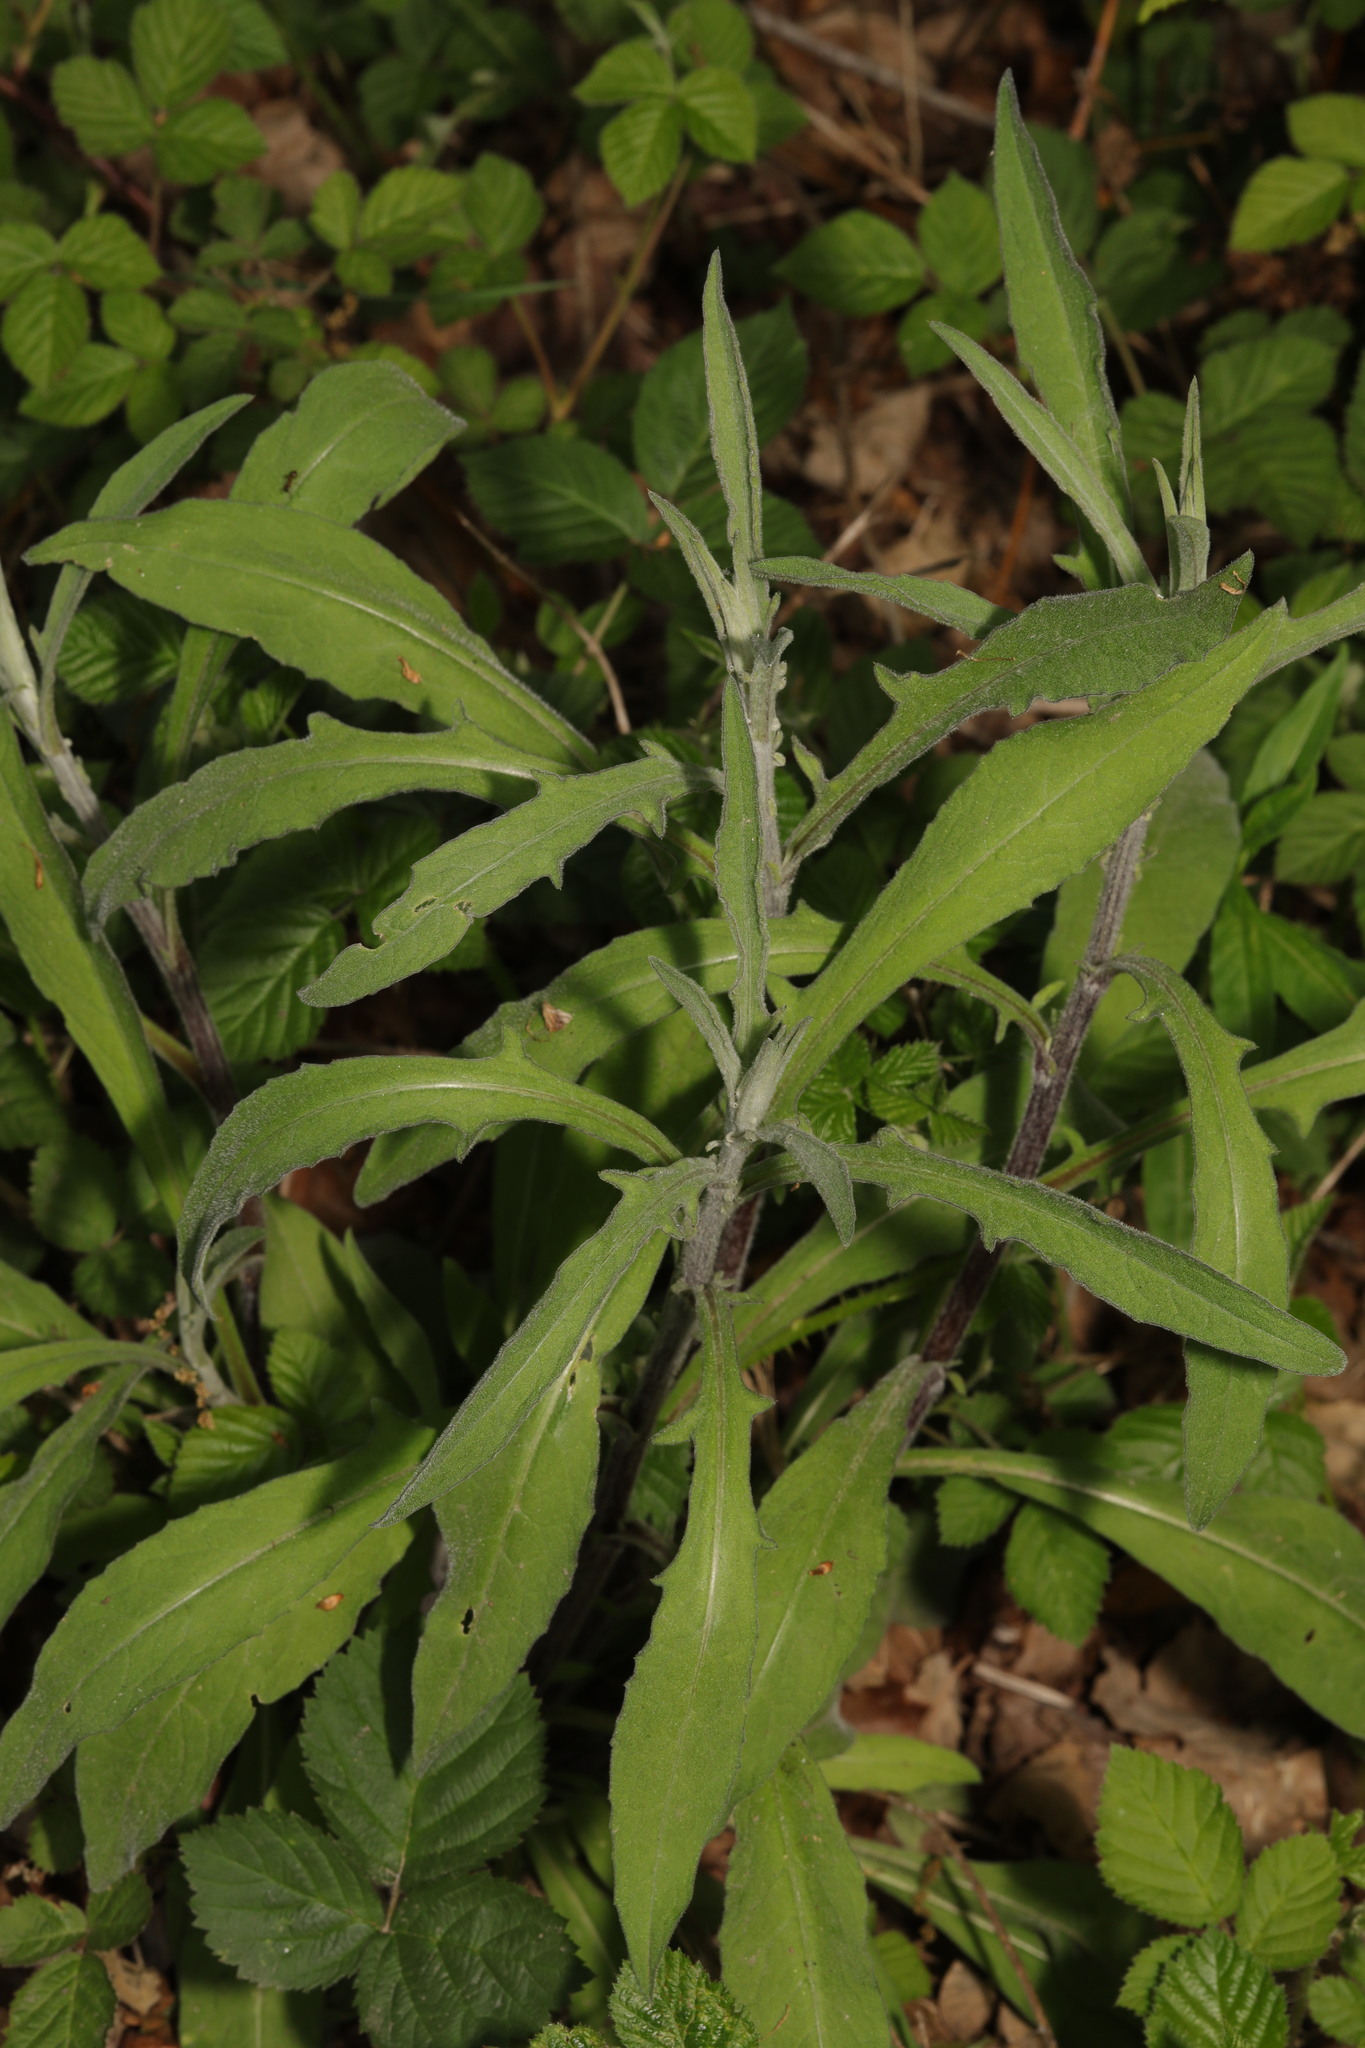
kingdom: Plantae
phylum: Tracheophyta
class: Magnoliopsida
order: Asterales
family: Asteraceae
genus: Centaurea
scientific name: Centaurea nigra
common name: Lesser knapweed
